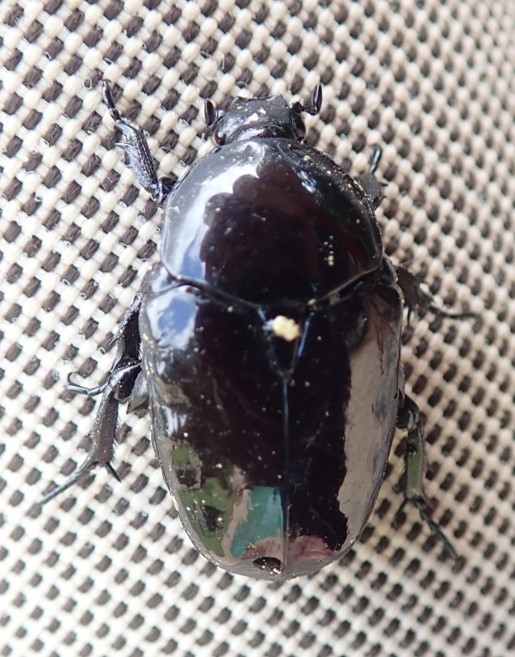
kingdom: Animalia
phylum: Arthropoda
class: Insecta
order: Coleoptera
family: Scarabaeidae
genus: Diplognatha
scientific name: Diplognatha gagates
